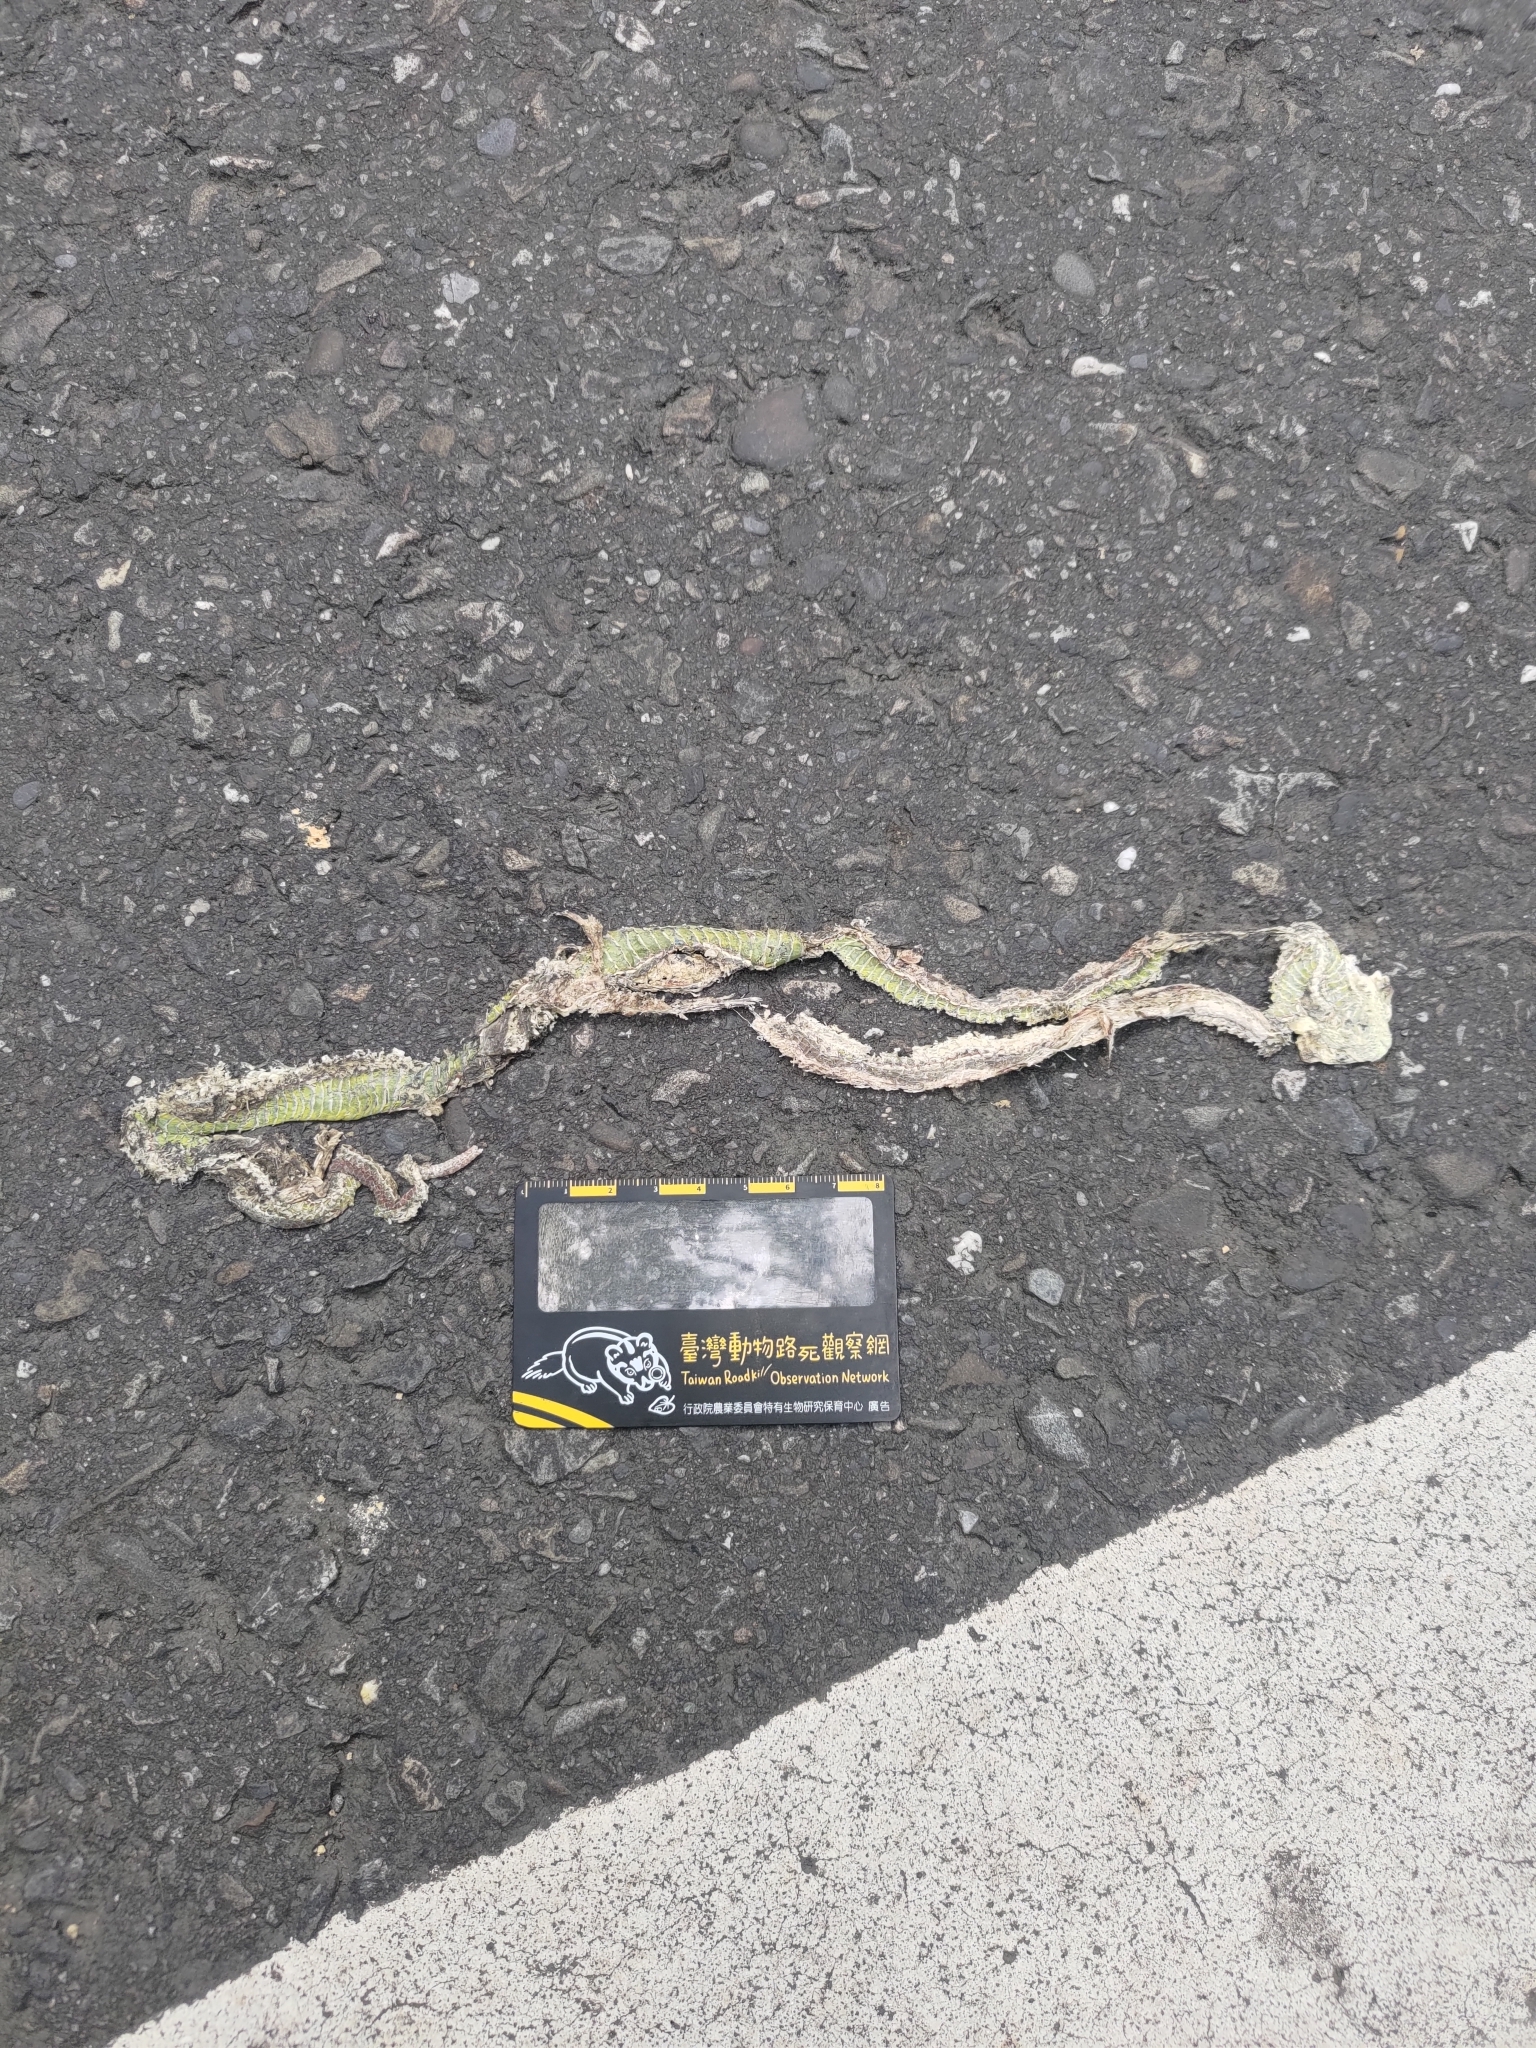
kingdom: Animalia
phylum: Chordata
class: Squamata
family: Viperidae
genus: Trimeresurus
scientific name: Trimeresurus stejnegeri
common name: Chen’s bamboo pit viper
